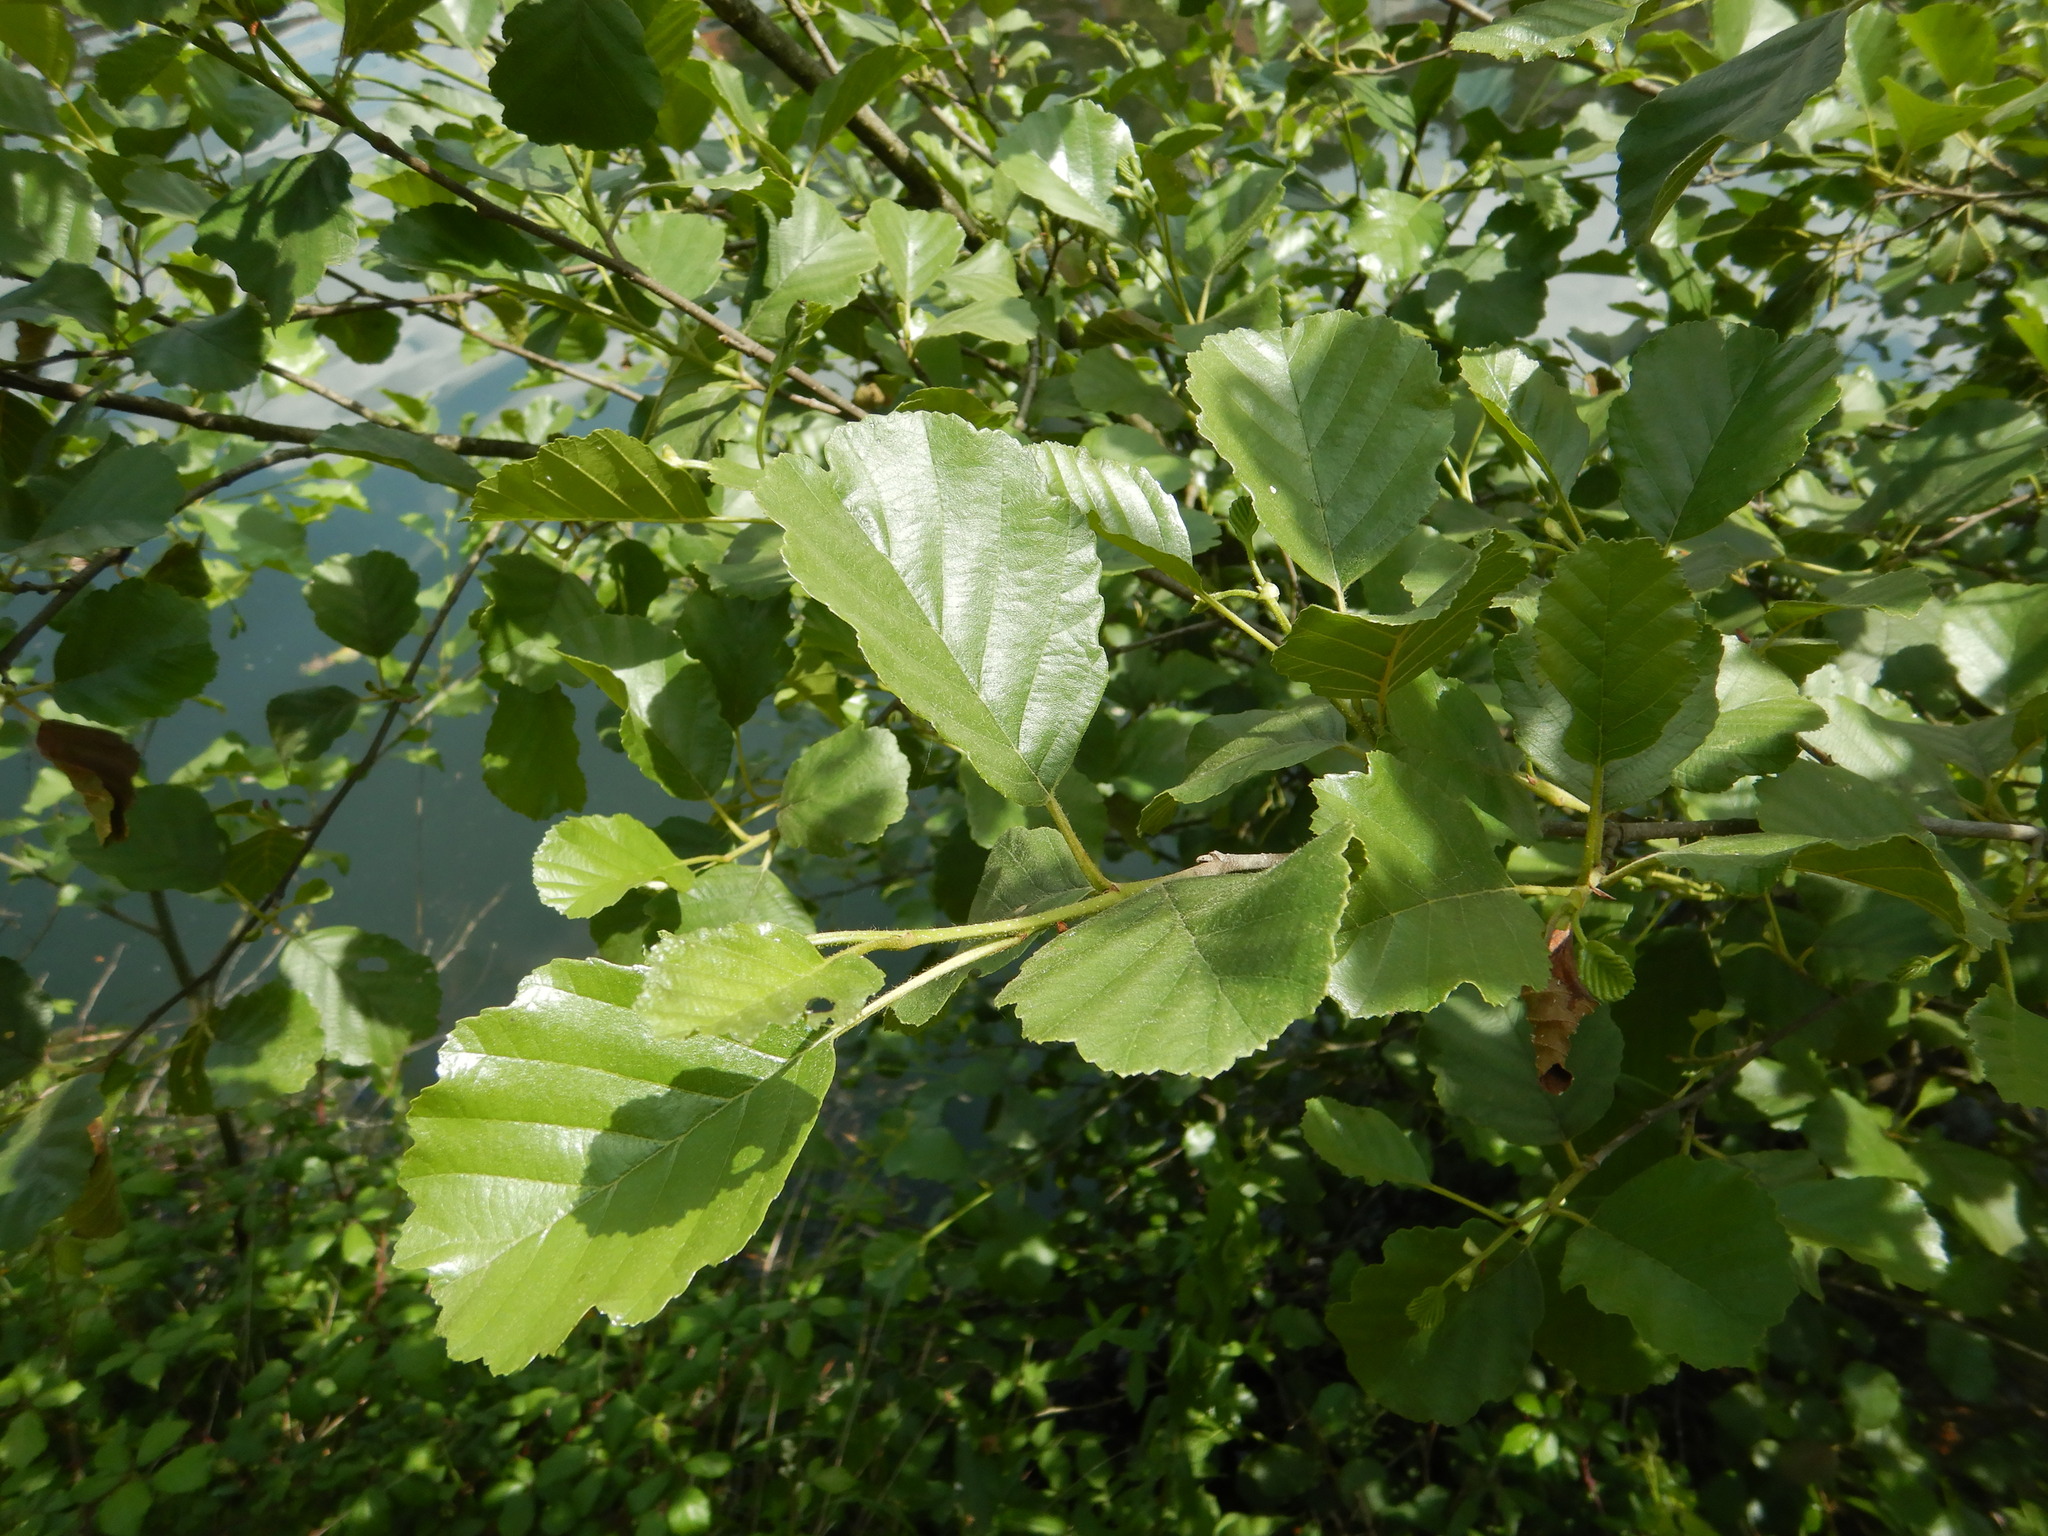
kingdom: Plantae
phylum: Tracheophyta
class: Magnoliopsida
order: Fagales
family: Betulaceae
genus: Alnus
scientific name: Alnus lusitanica
